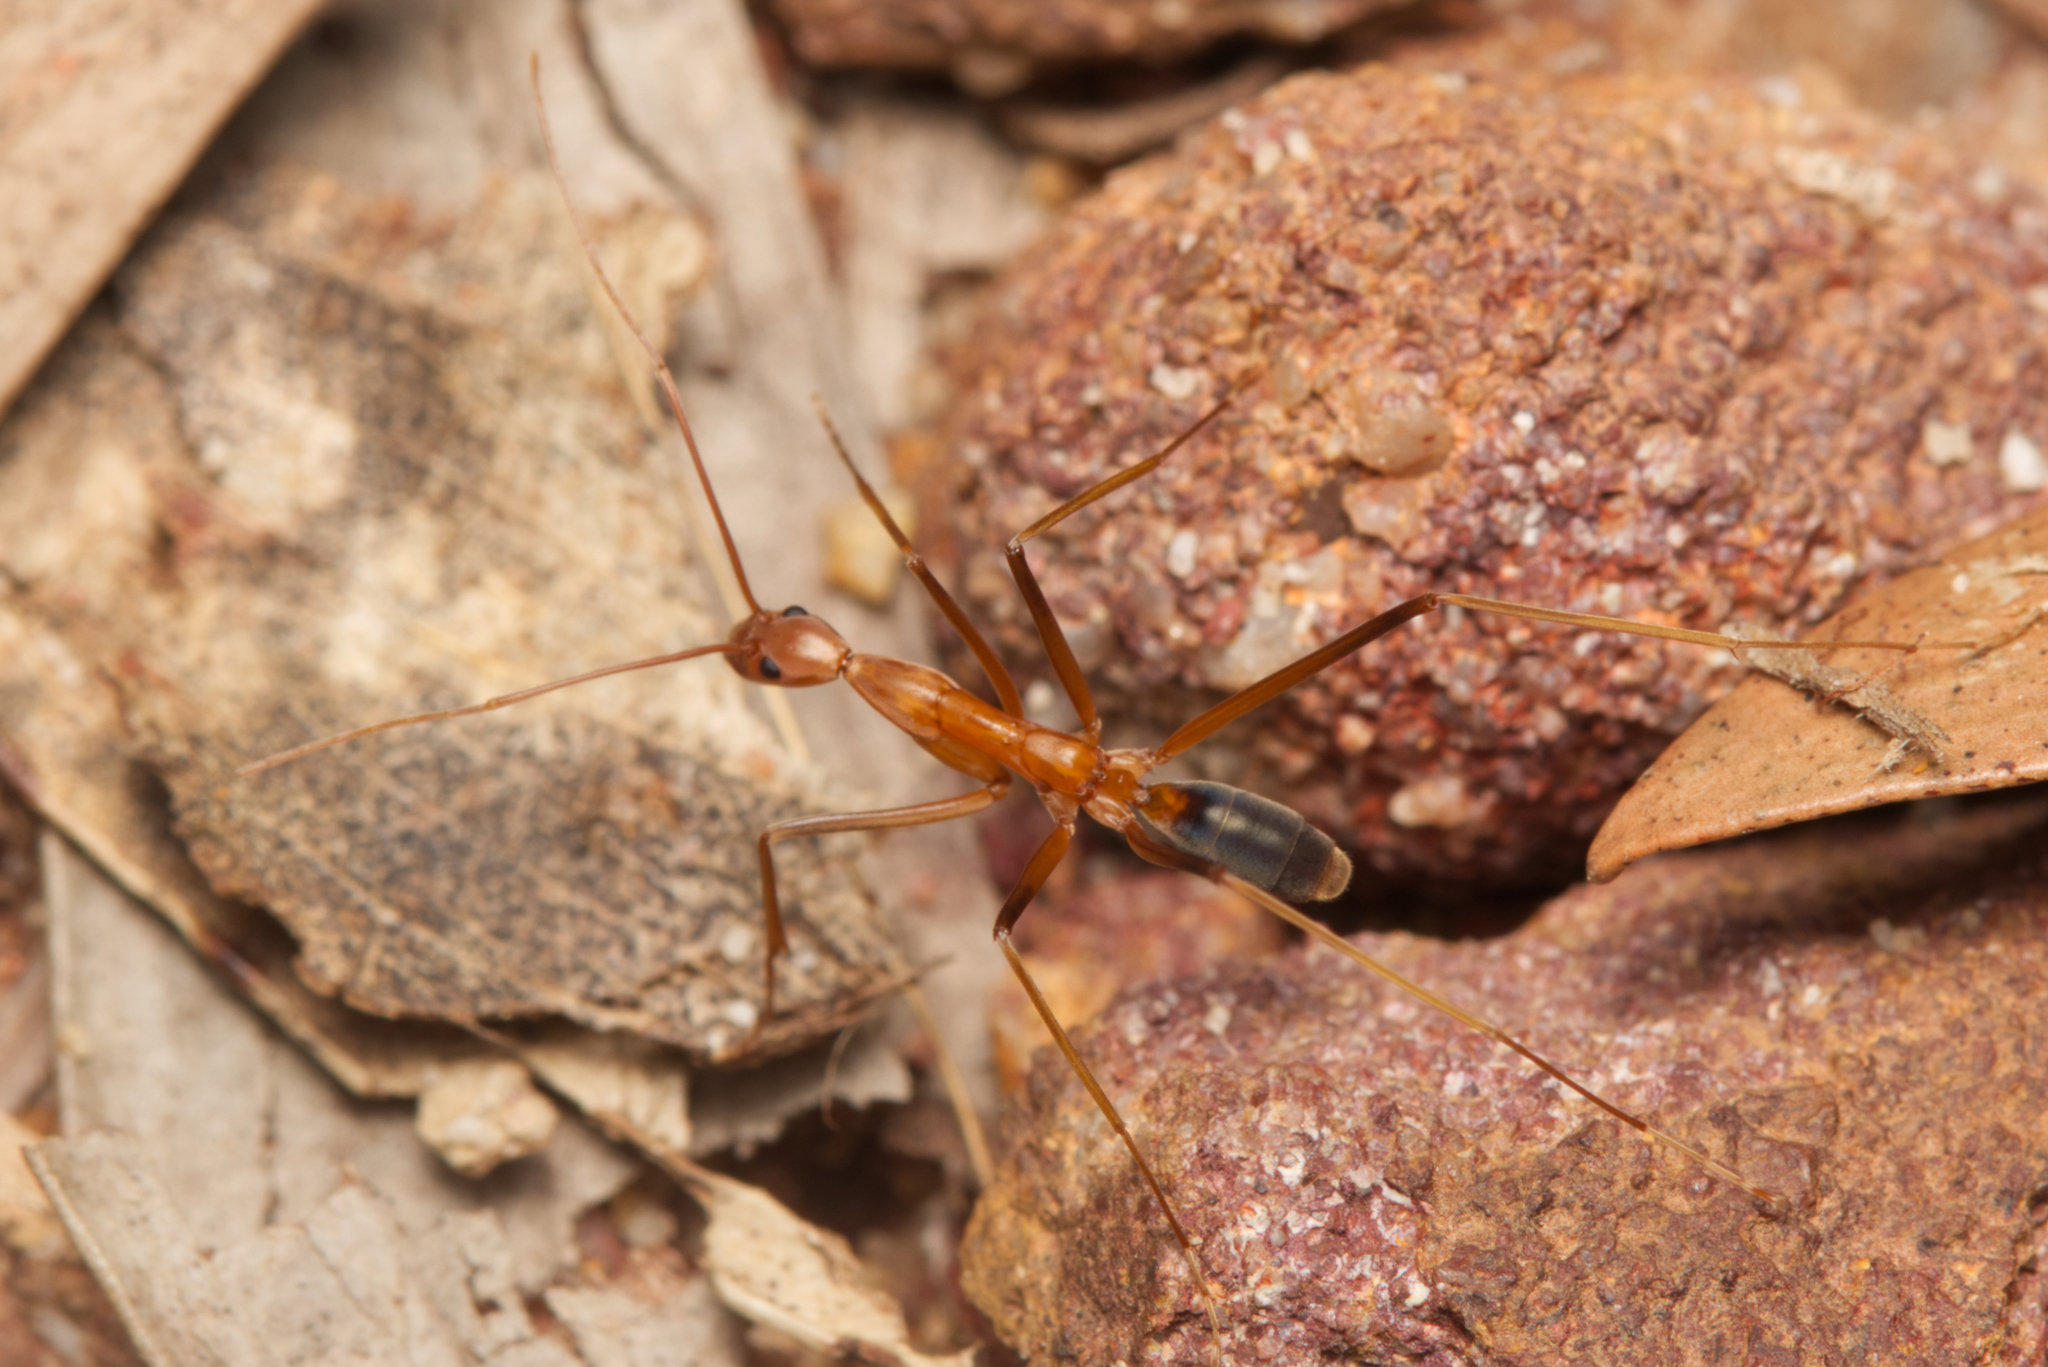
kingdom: Animalia
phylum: Arthropoda
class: Insecta
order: Hymenoptera
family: Formicidae
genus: Leptomyrmex
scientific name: Leptomyrmex rufipes
